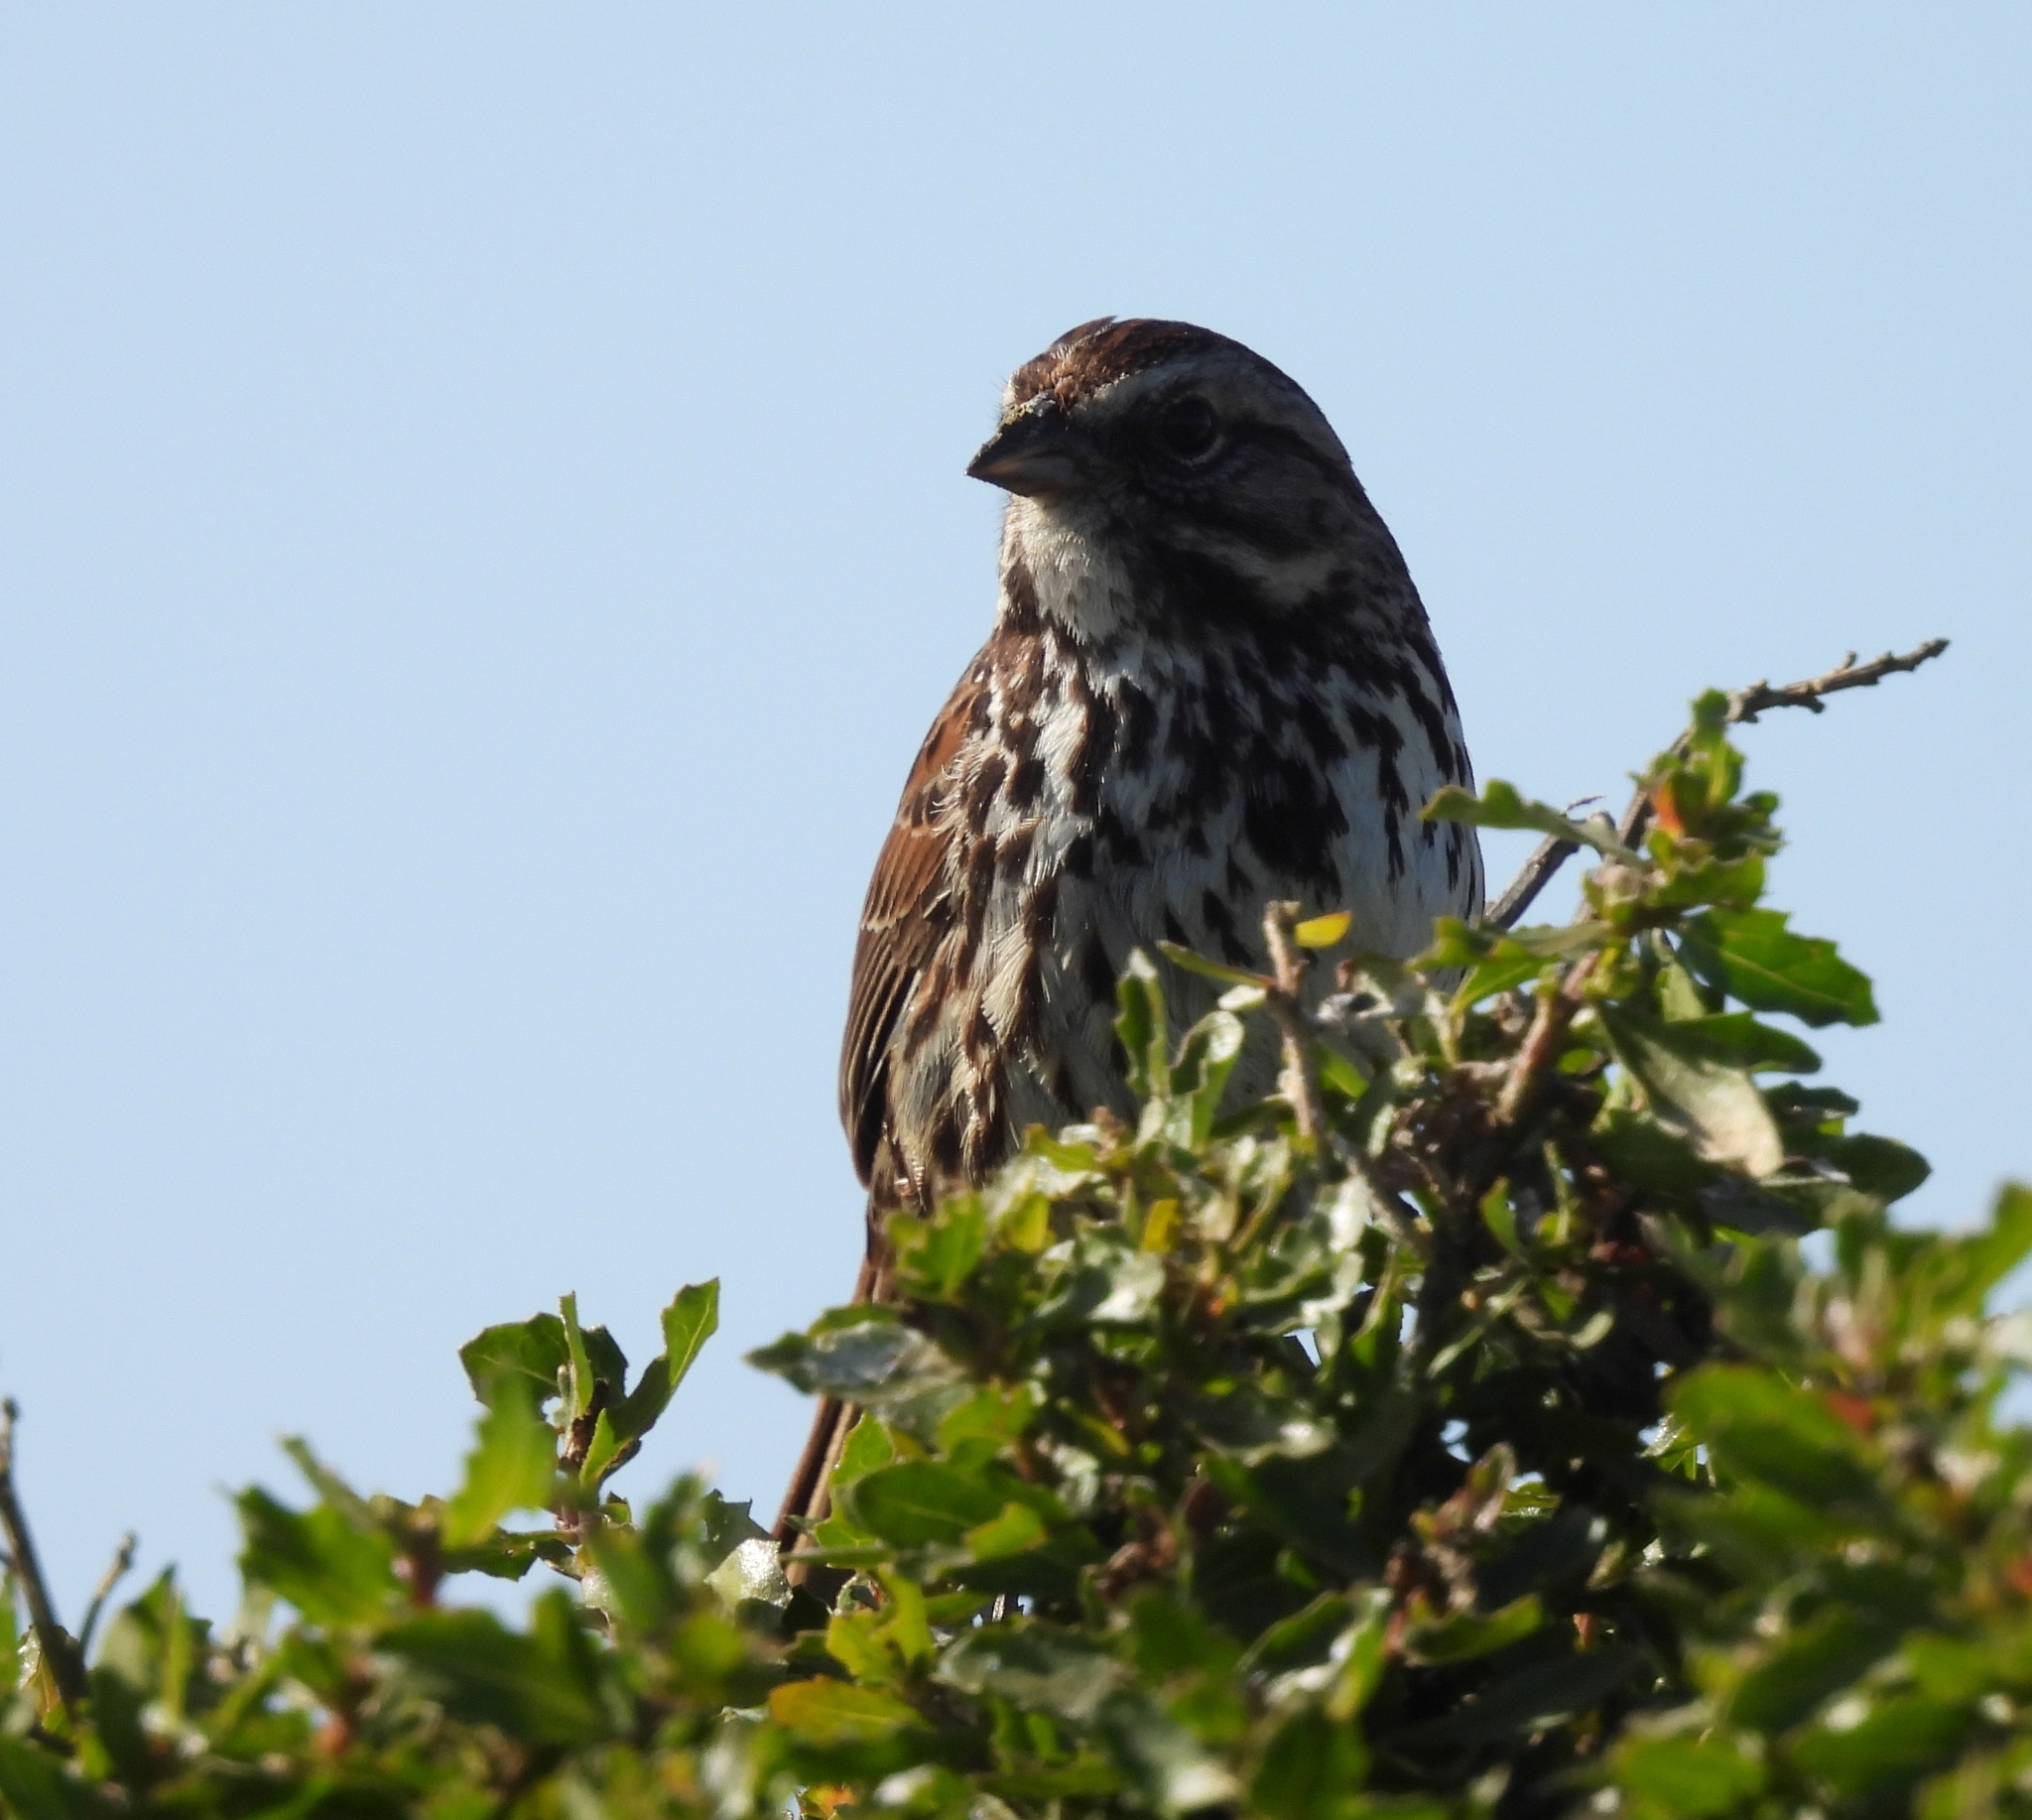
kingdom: Animalia
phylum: Chordata
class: Aves
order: Passeriformes
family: Passerellidae
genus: Melospiza
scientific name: Melospiza melodia
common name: Song sparrow
